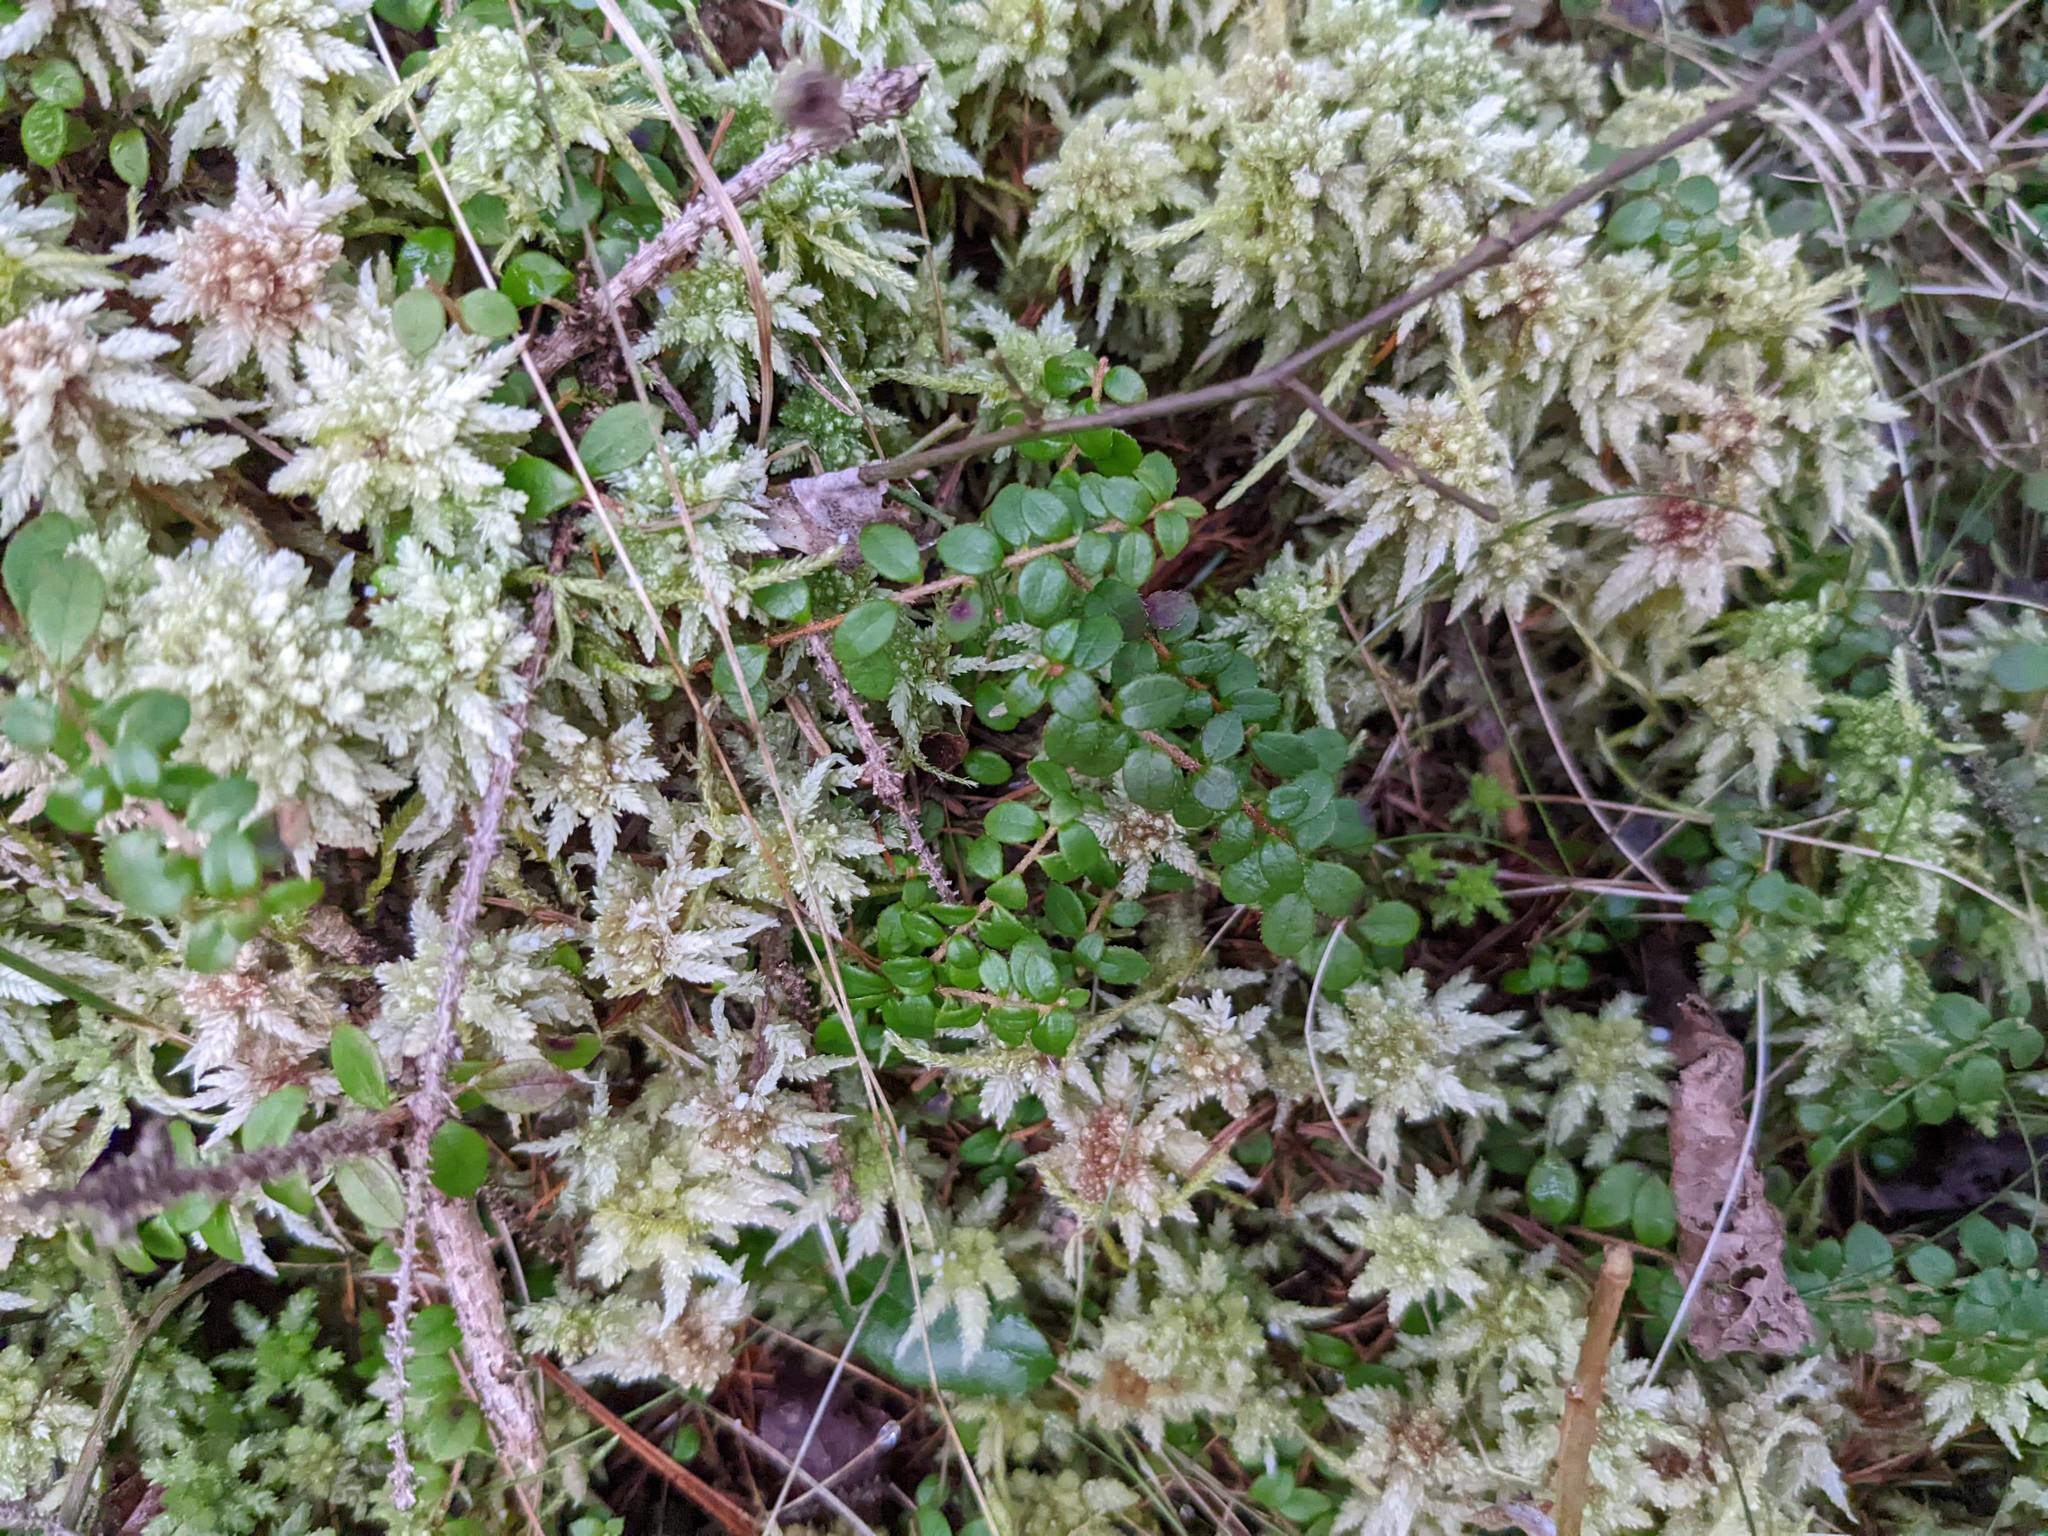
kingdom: Plantae
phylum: Tracheophyta
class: Magnoliopsida
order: Ericales
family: Ericaceae
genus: Gaultheria
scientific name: Gaultheria hispidula
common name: Cancer wintergreen
